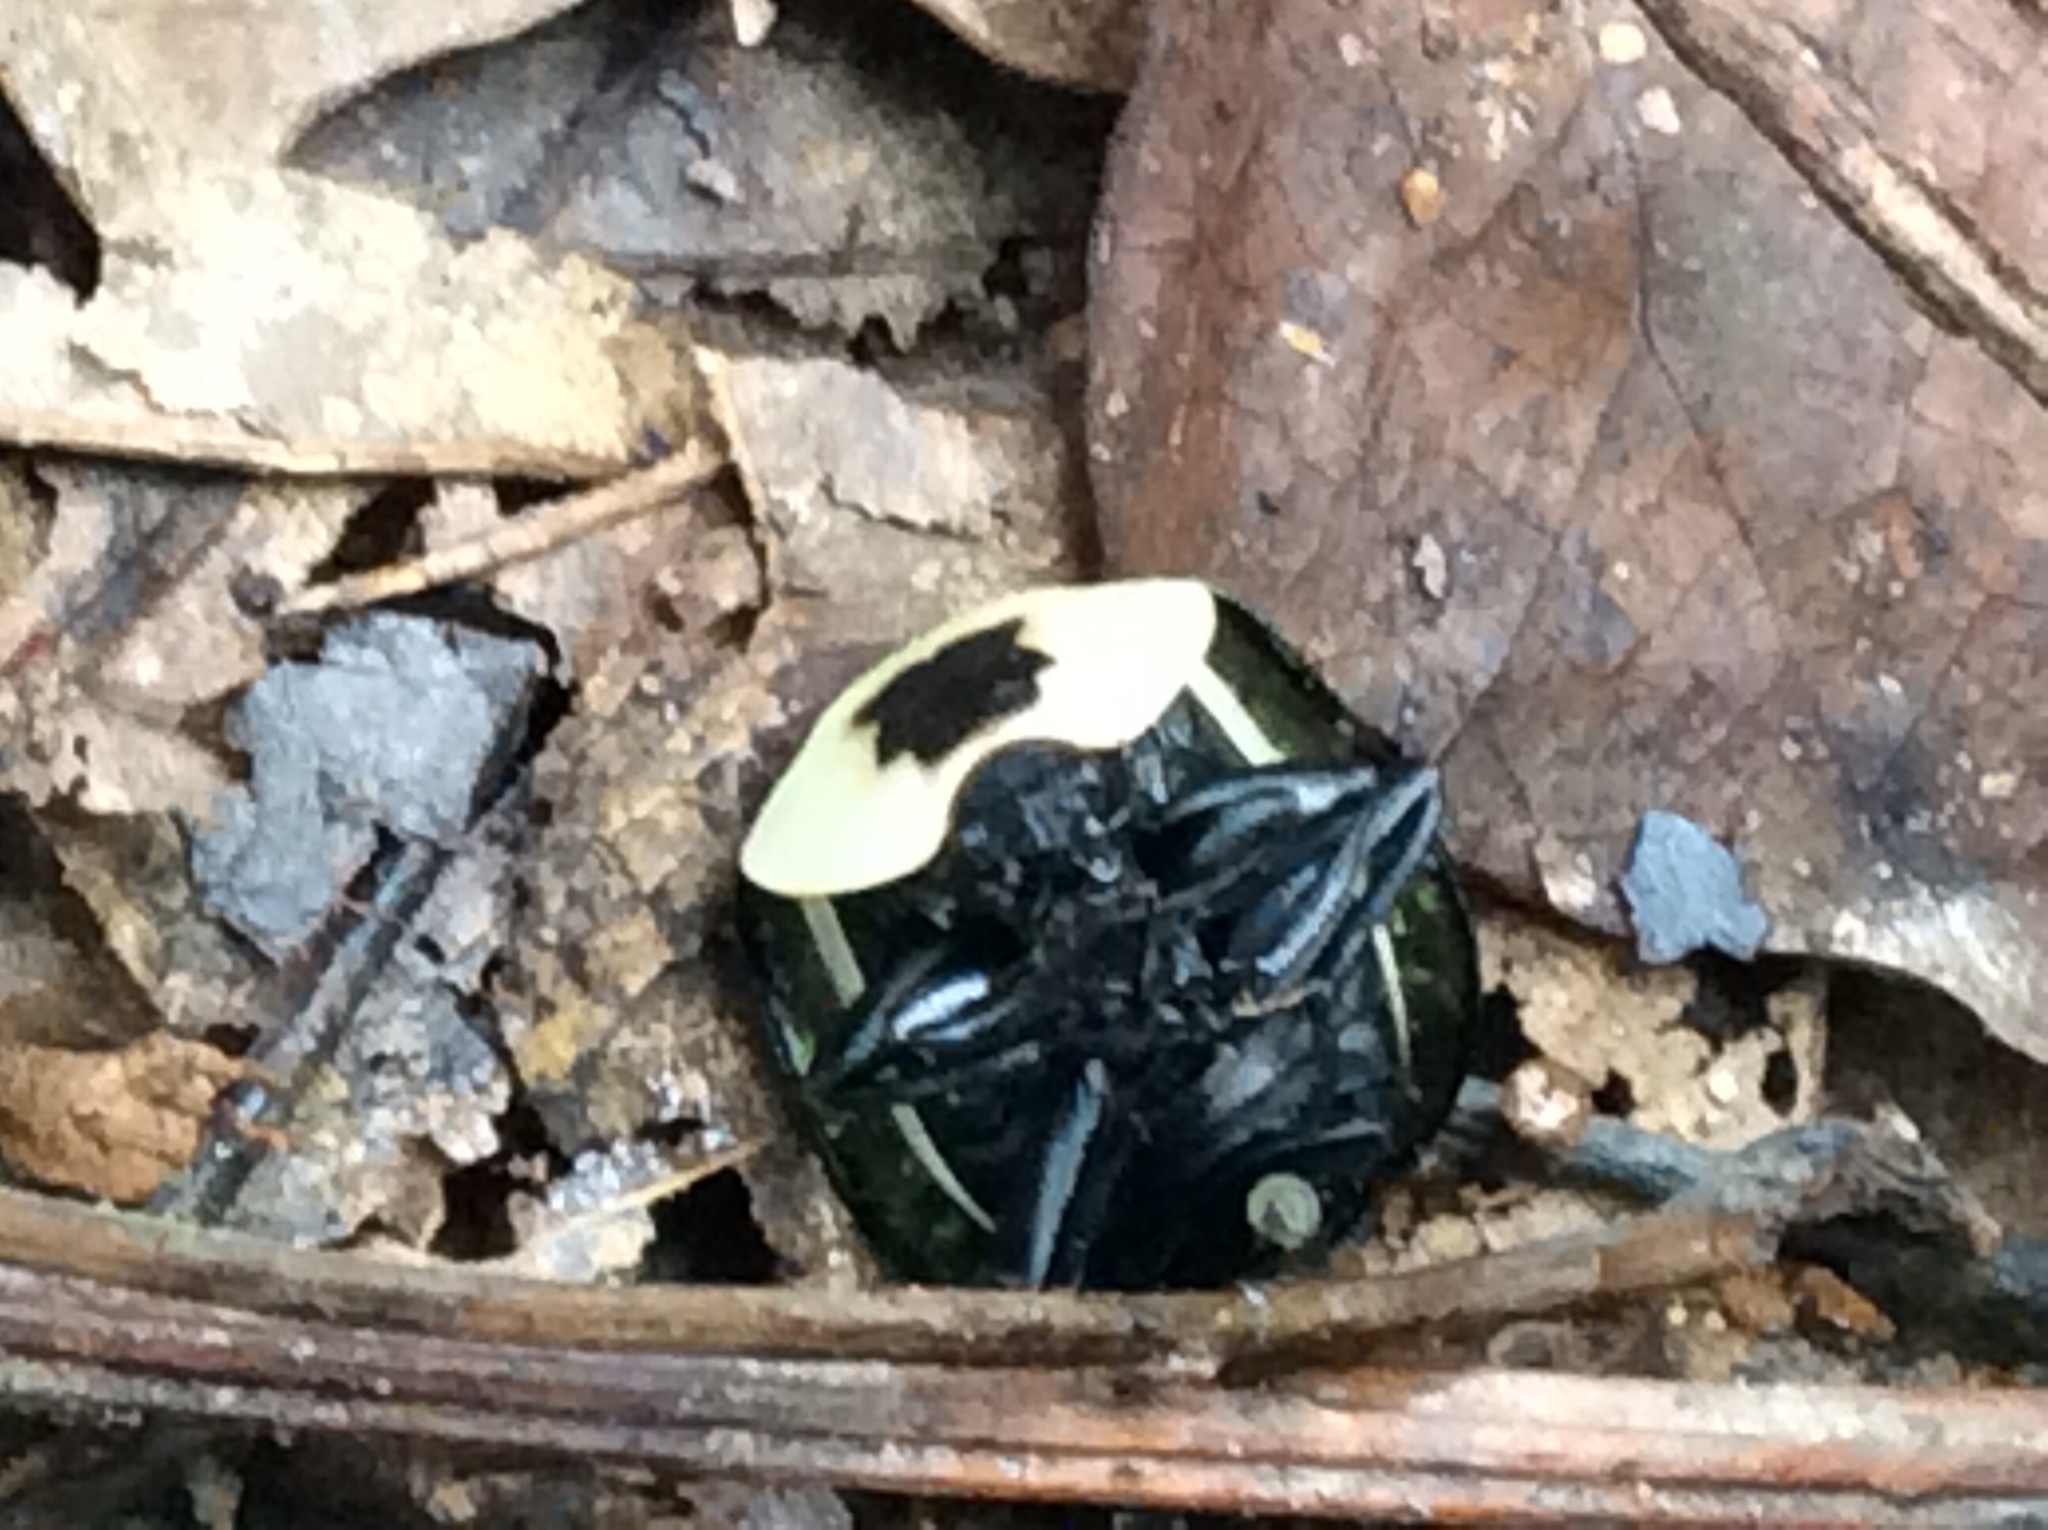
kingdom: Animalia
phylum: Arthropoda
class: Insecta
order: Coleoptera
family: Staphylinidae
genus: Necrophila
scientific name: Necrophila americana
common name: American carrion beetle
